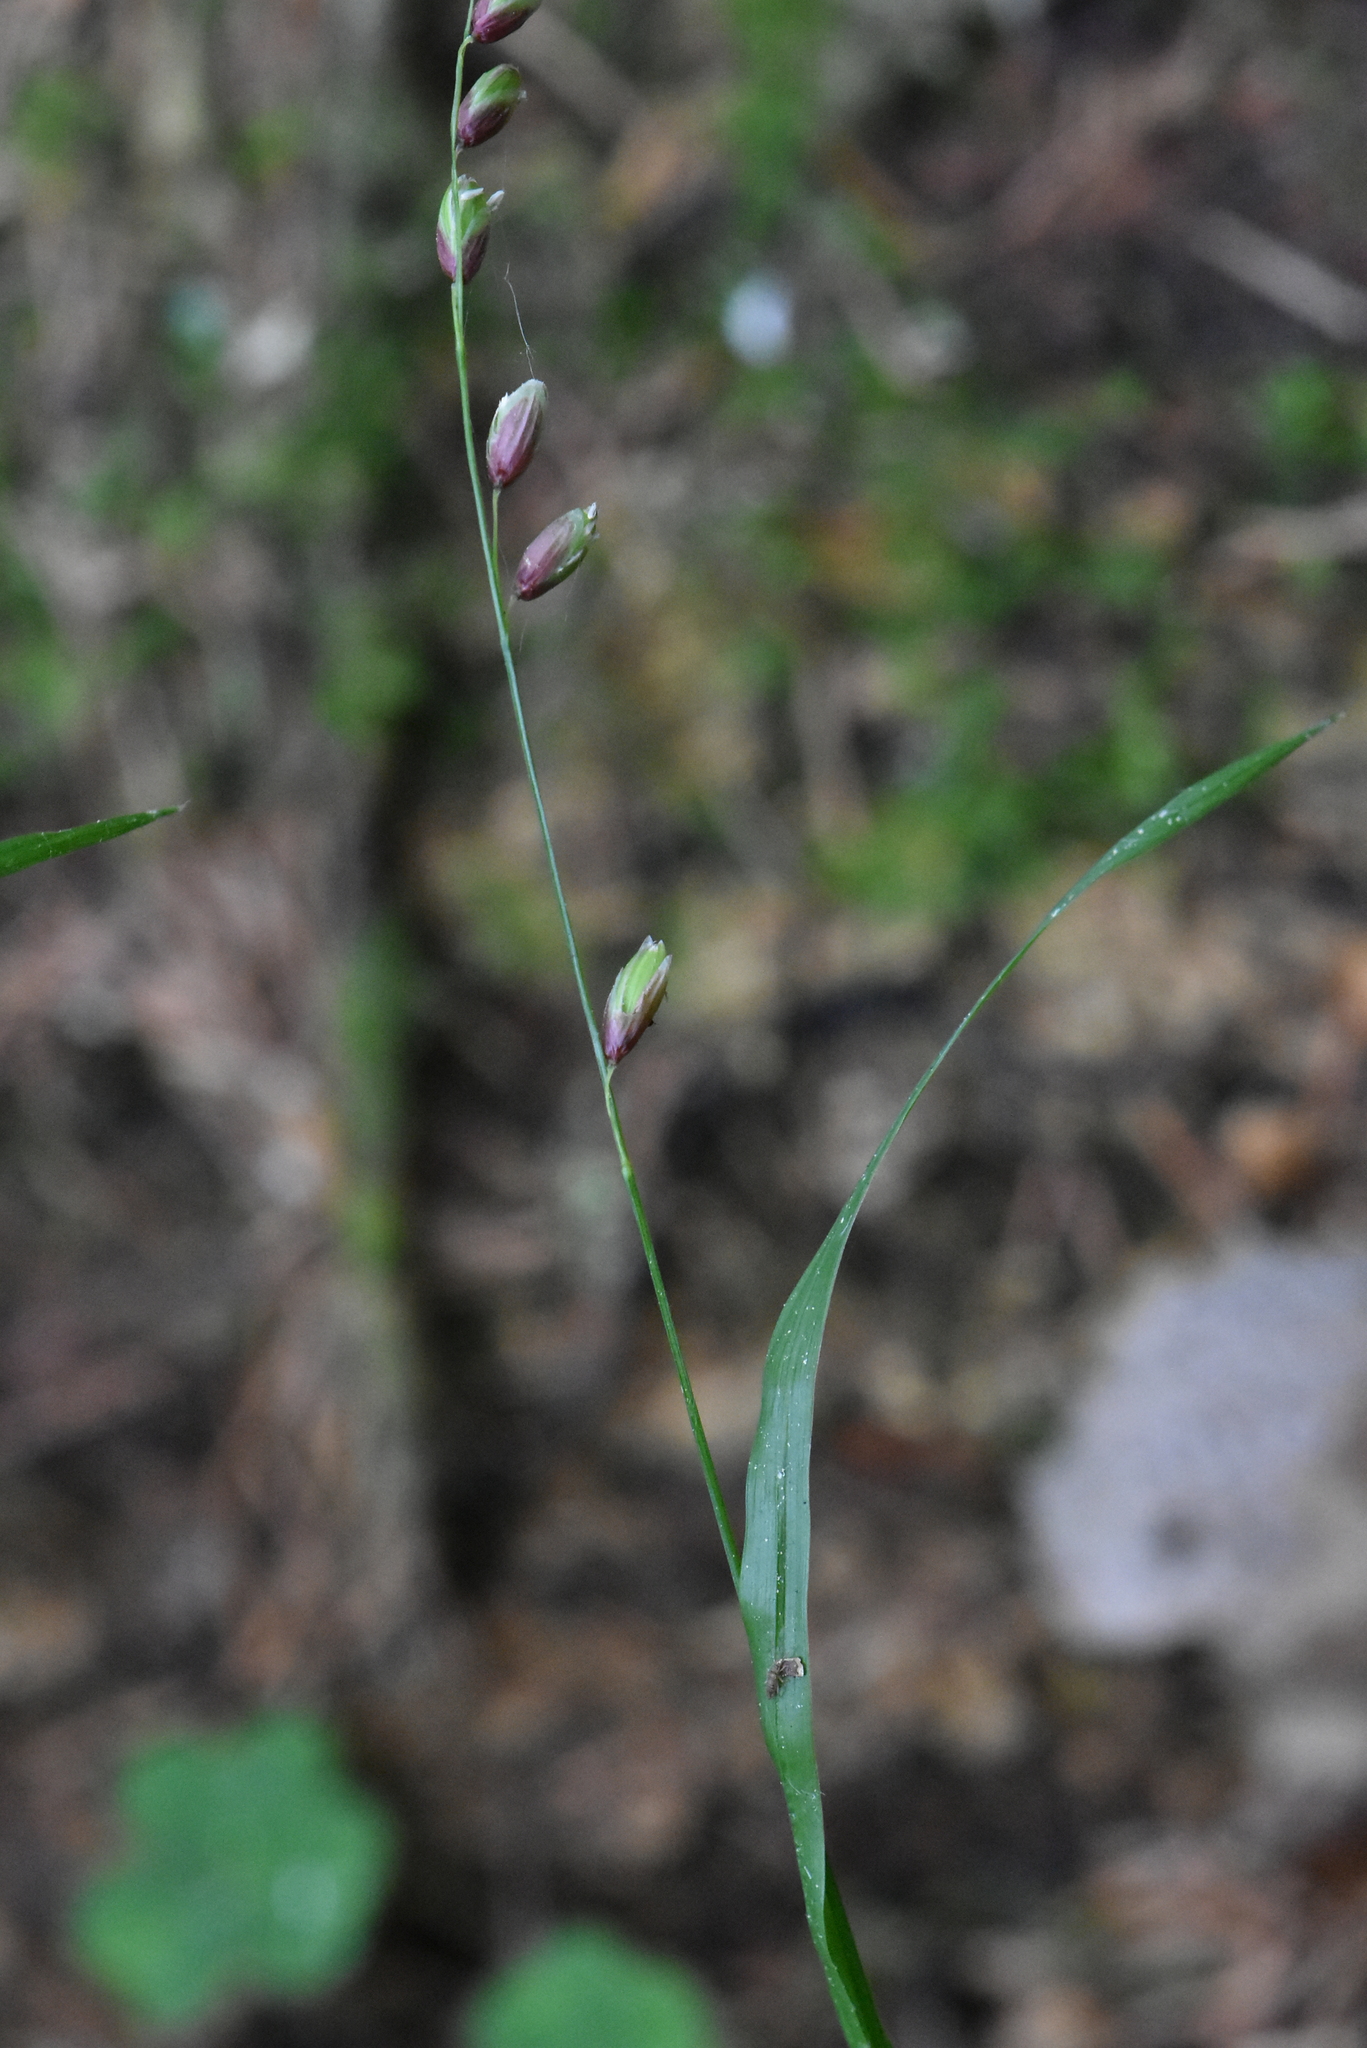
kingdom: Plantae
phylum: Tracheophyta
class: Liliopsida
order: Poales
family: Poaceae
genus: Melica
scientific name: Melica nutans
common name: Mountain melick
